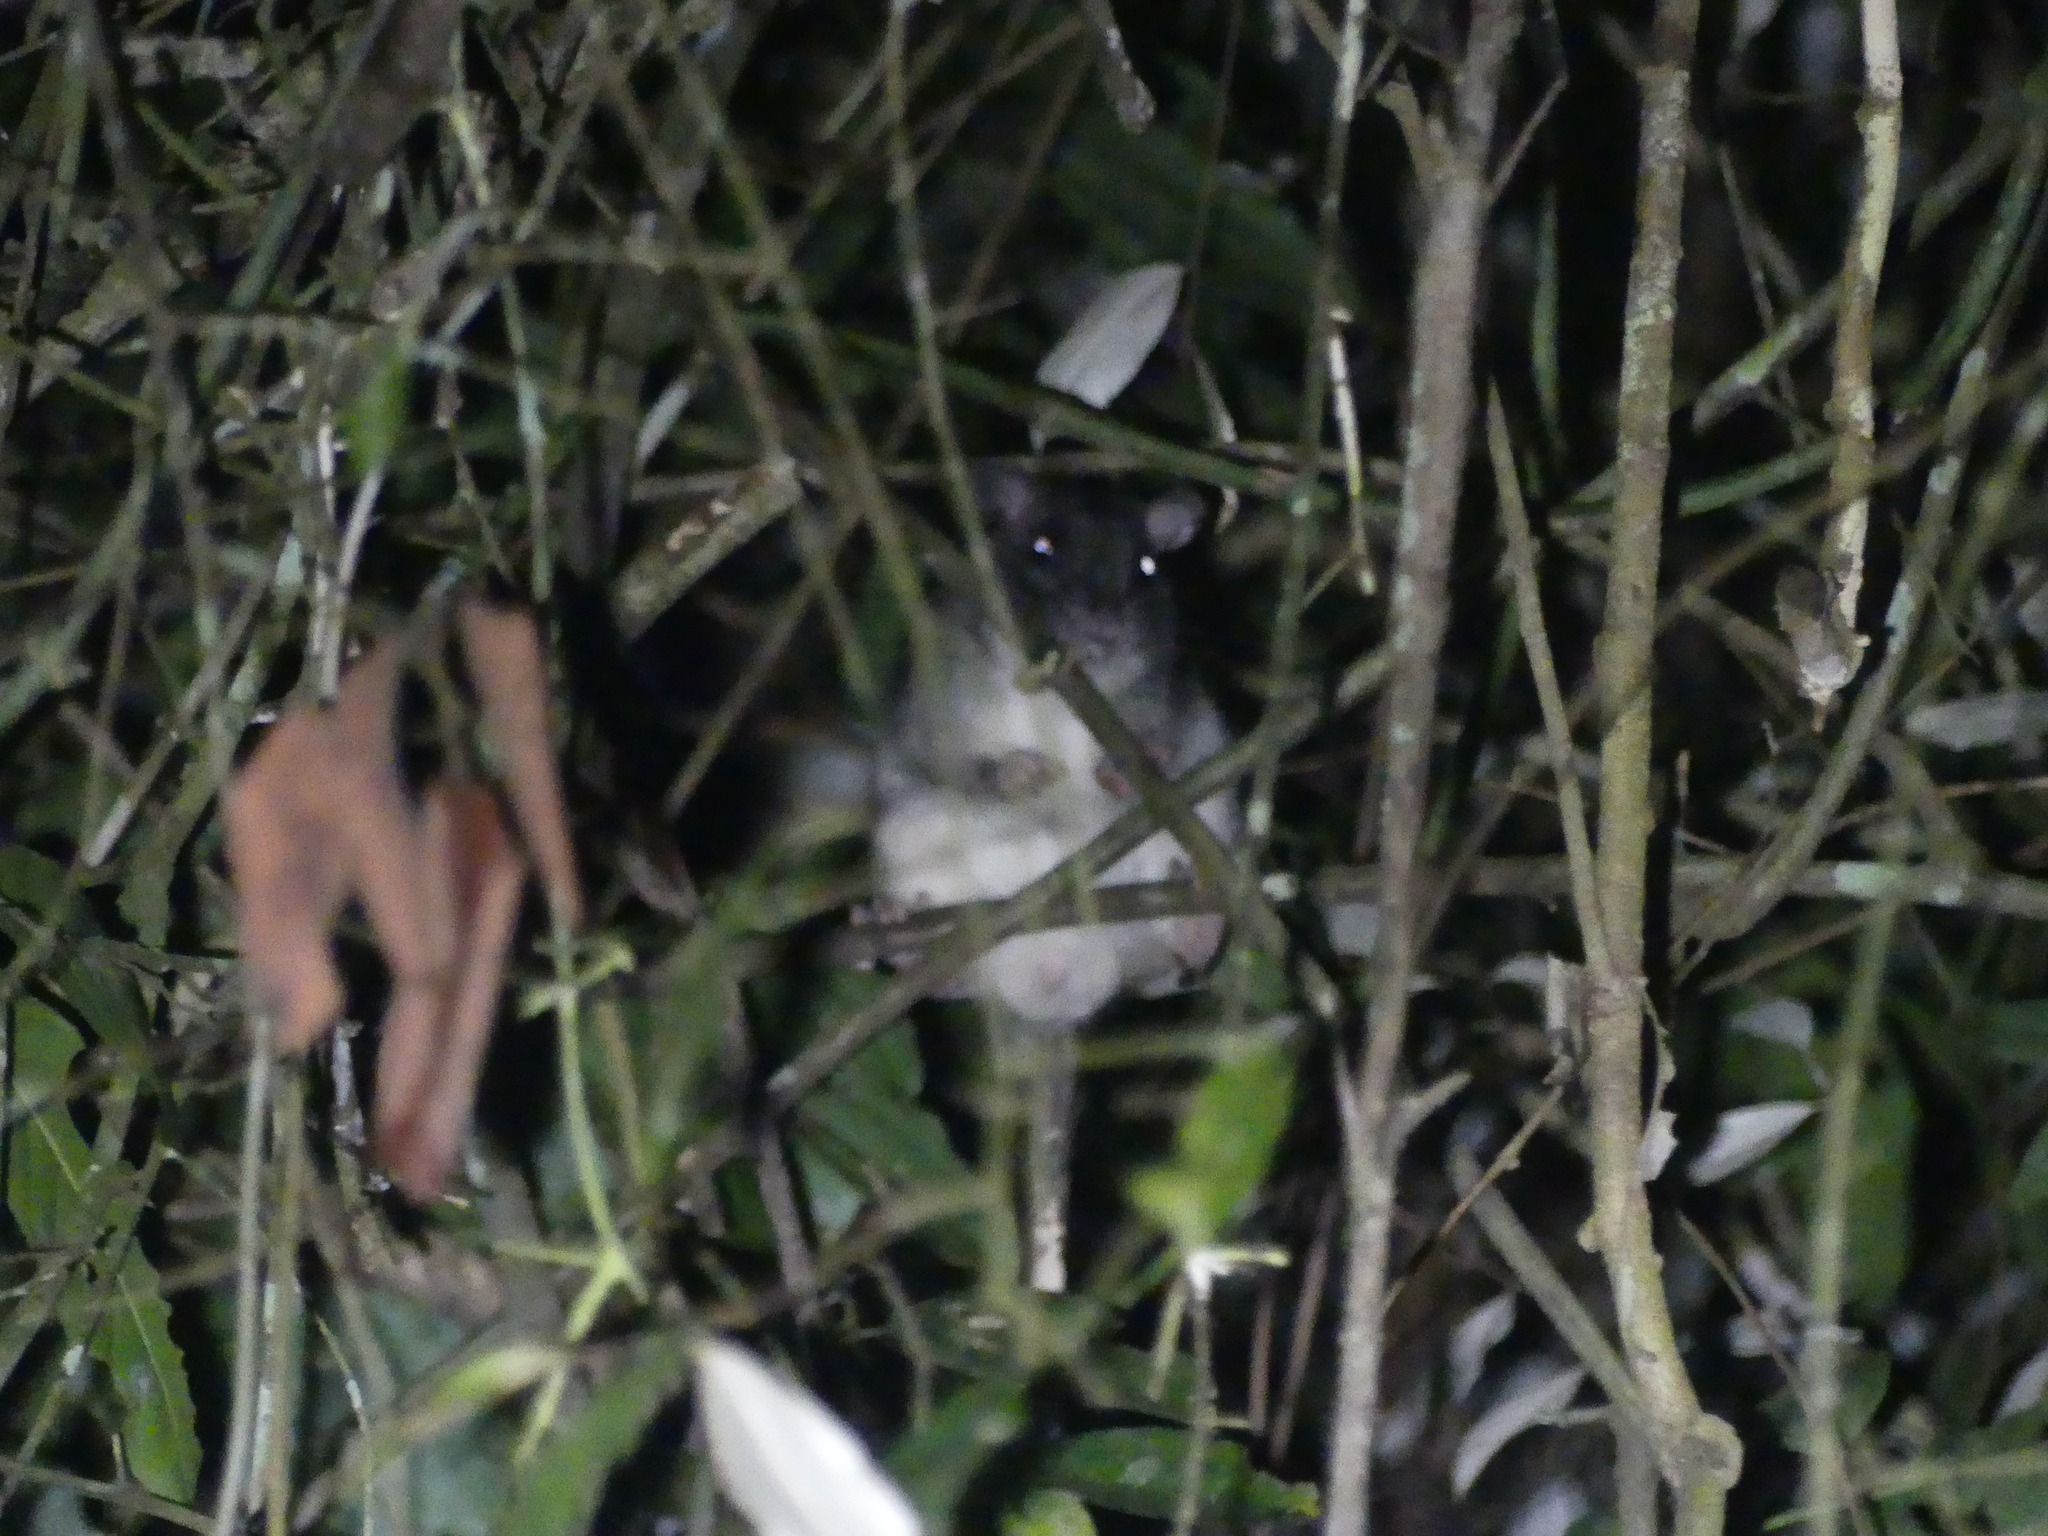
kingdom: Animalia
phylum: Chordata
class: Mammalia
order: Rodentia
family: Muridae
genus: Uromys
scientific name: Uromys caudimaculatus
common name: Giant white-tailed uromys
